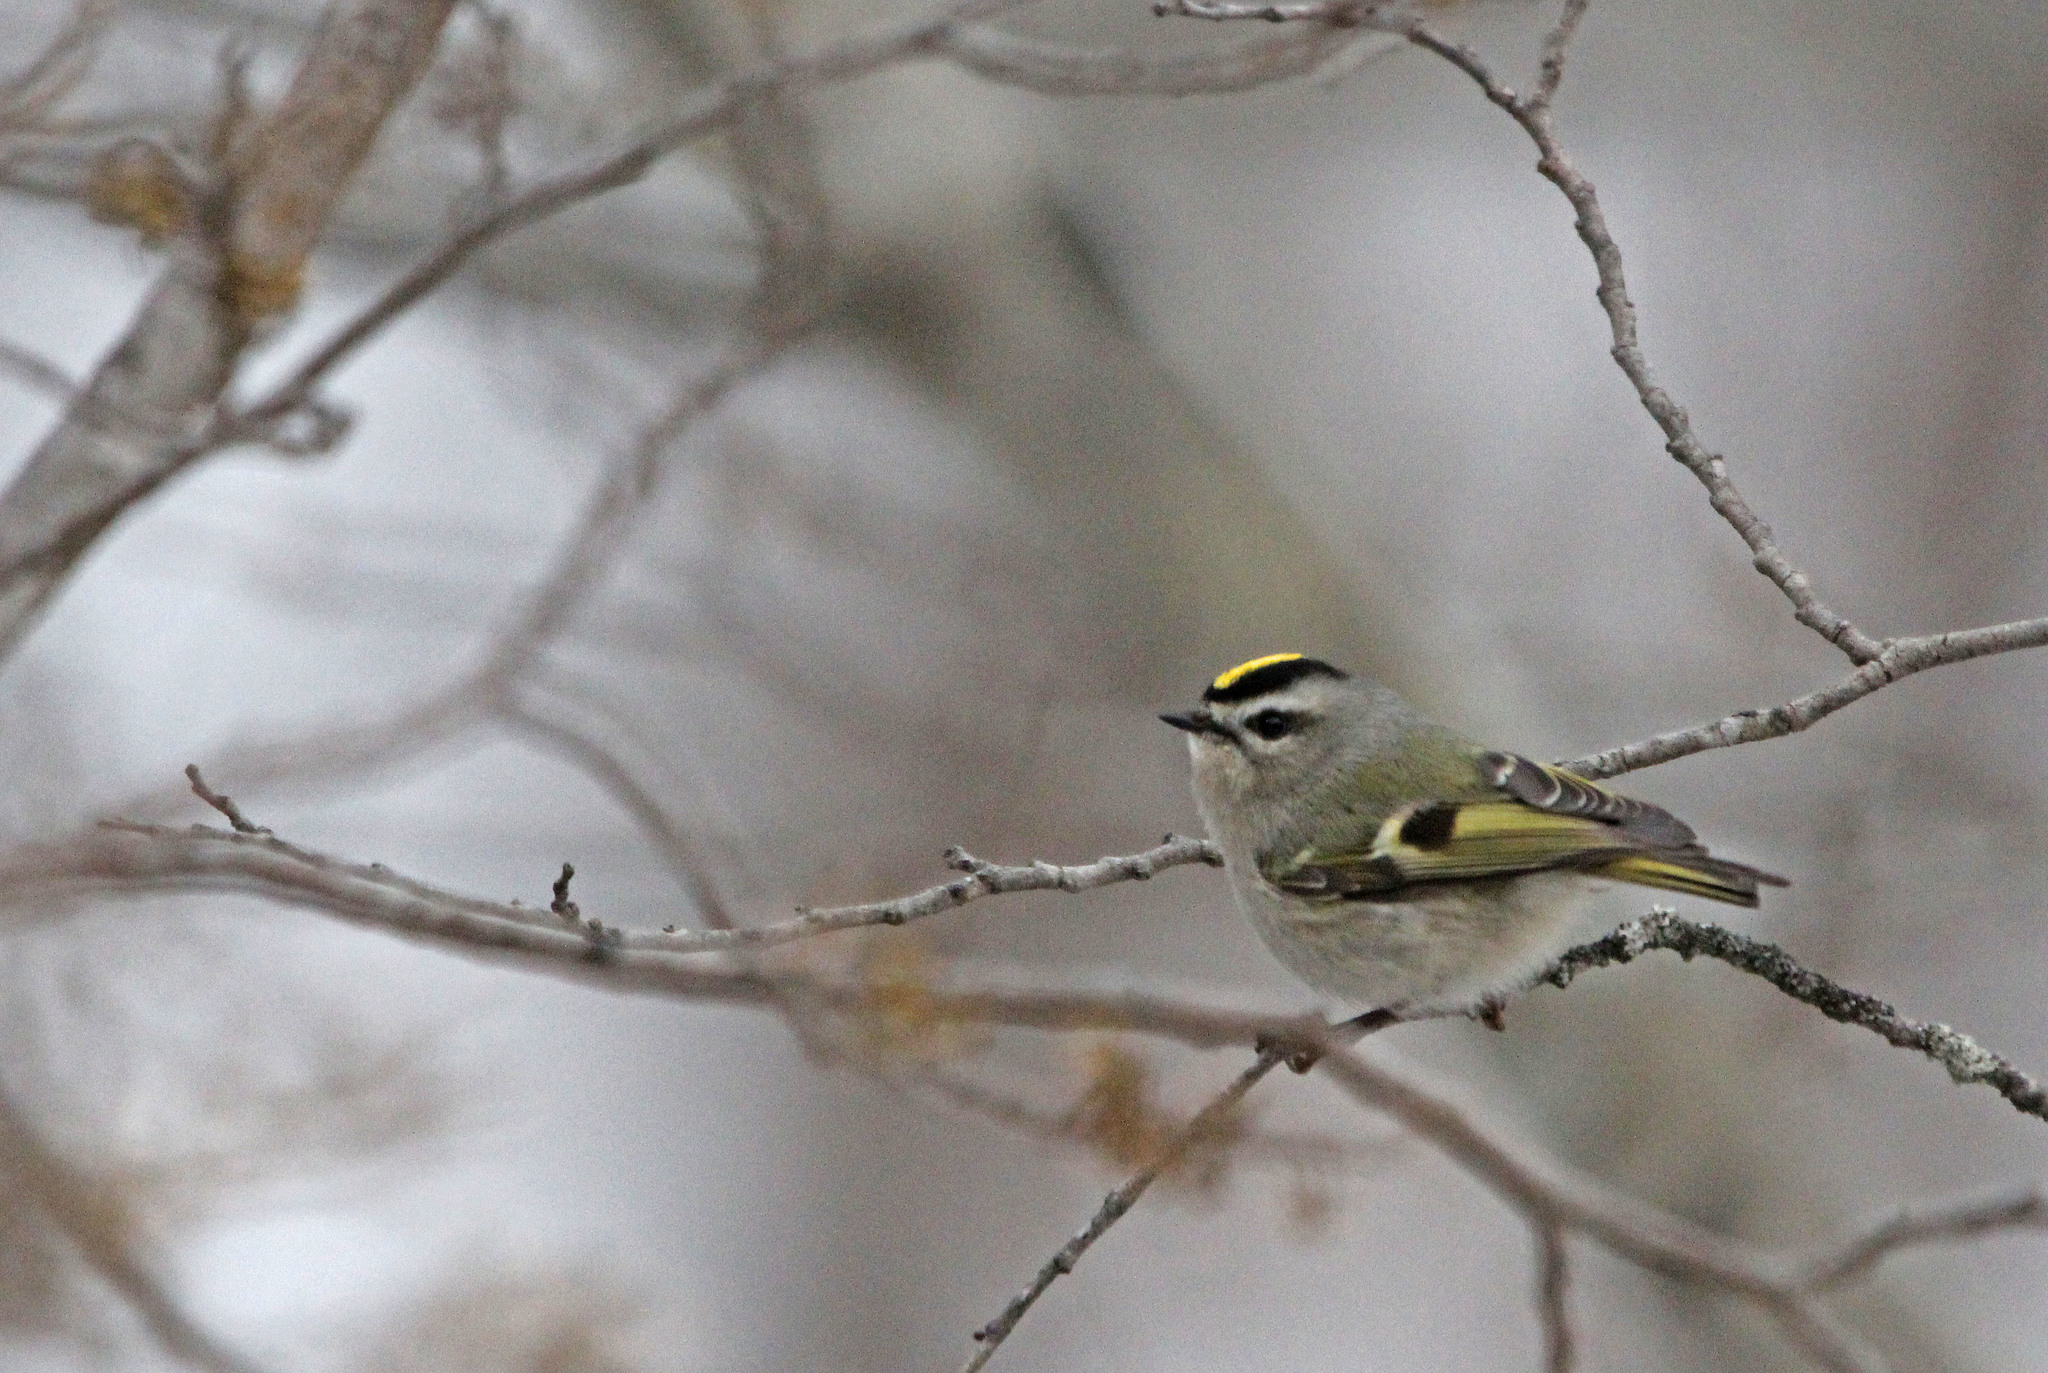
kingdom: Animalia
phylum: Chordata
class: Aves
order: Passeriformes
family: Regulidae
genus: Regulus
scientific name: Regulus satrapa
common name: Golden-crowned kinglet
